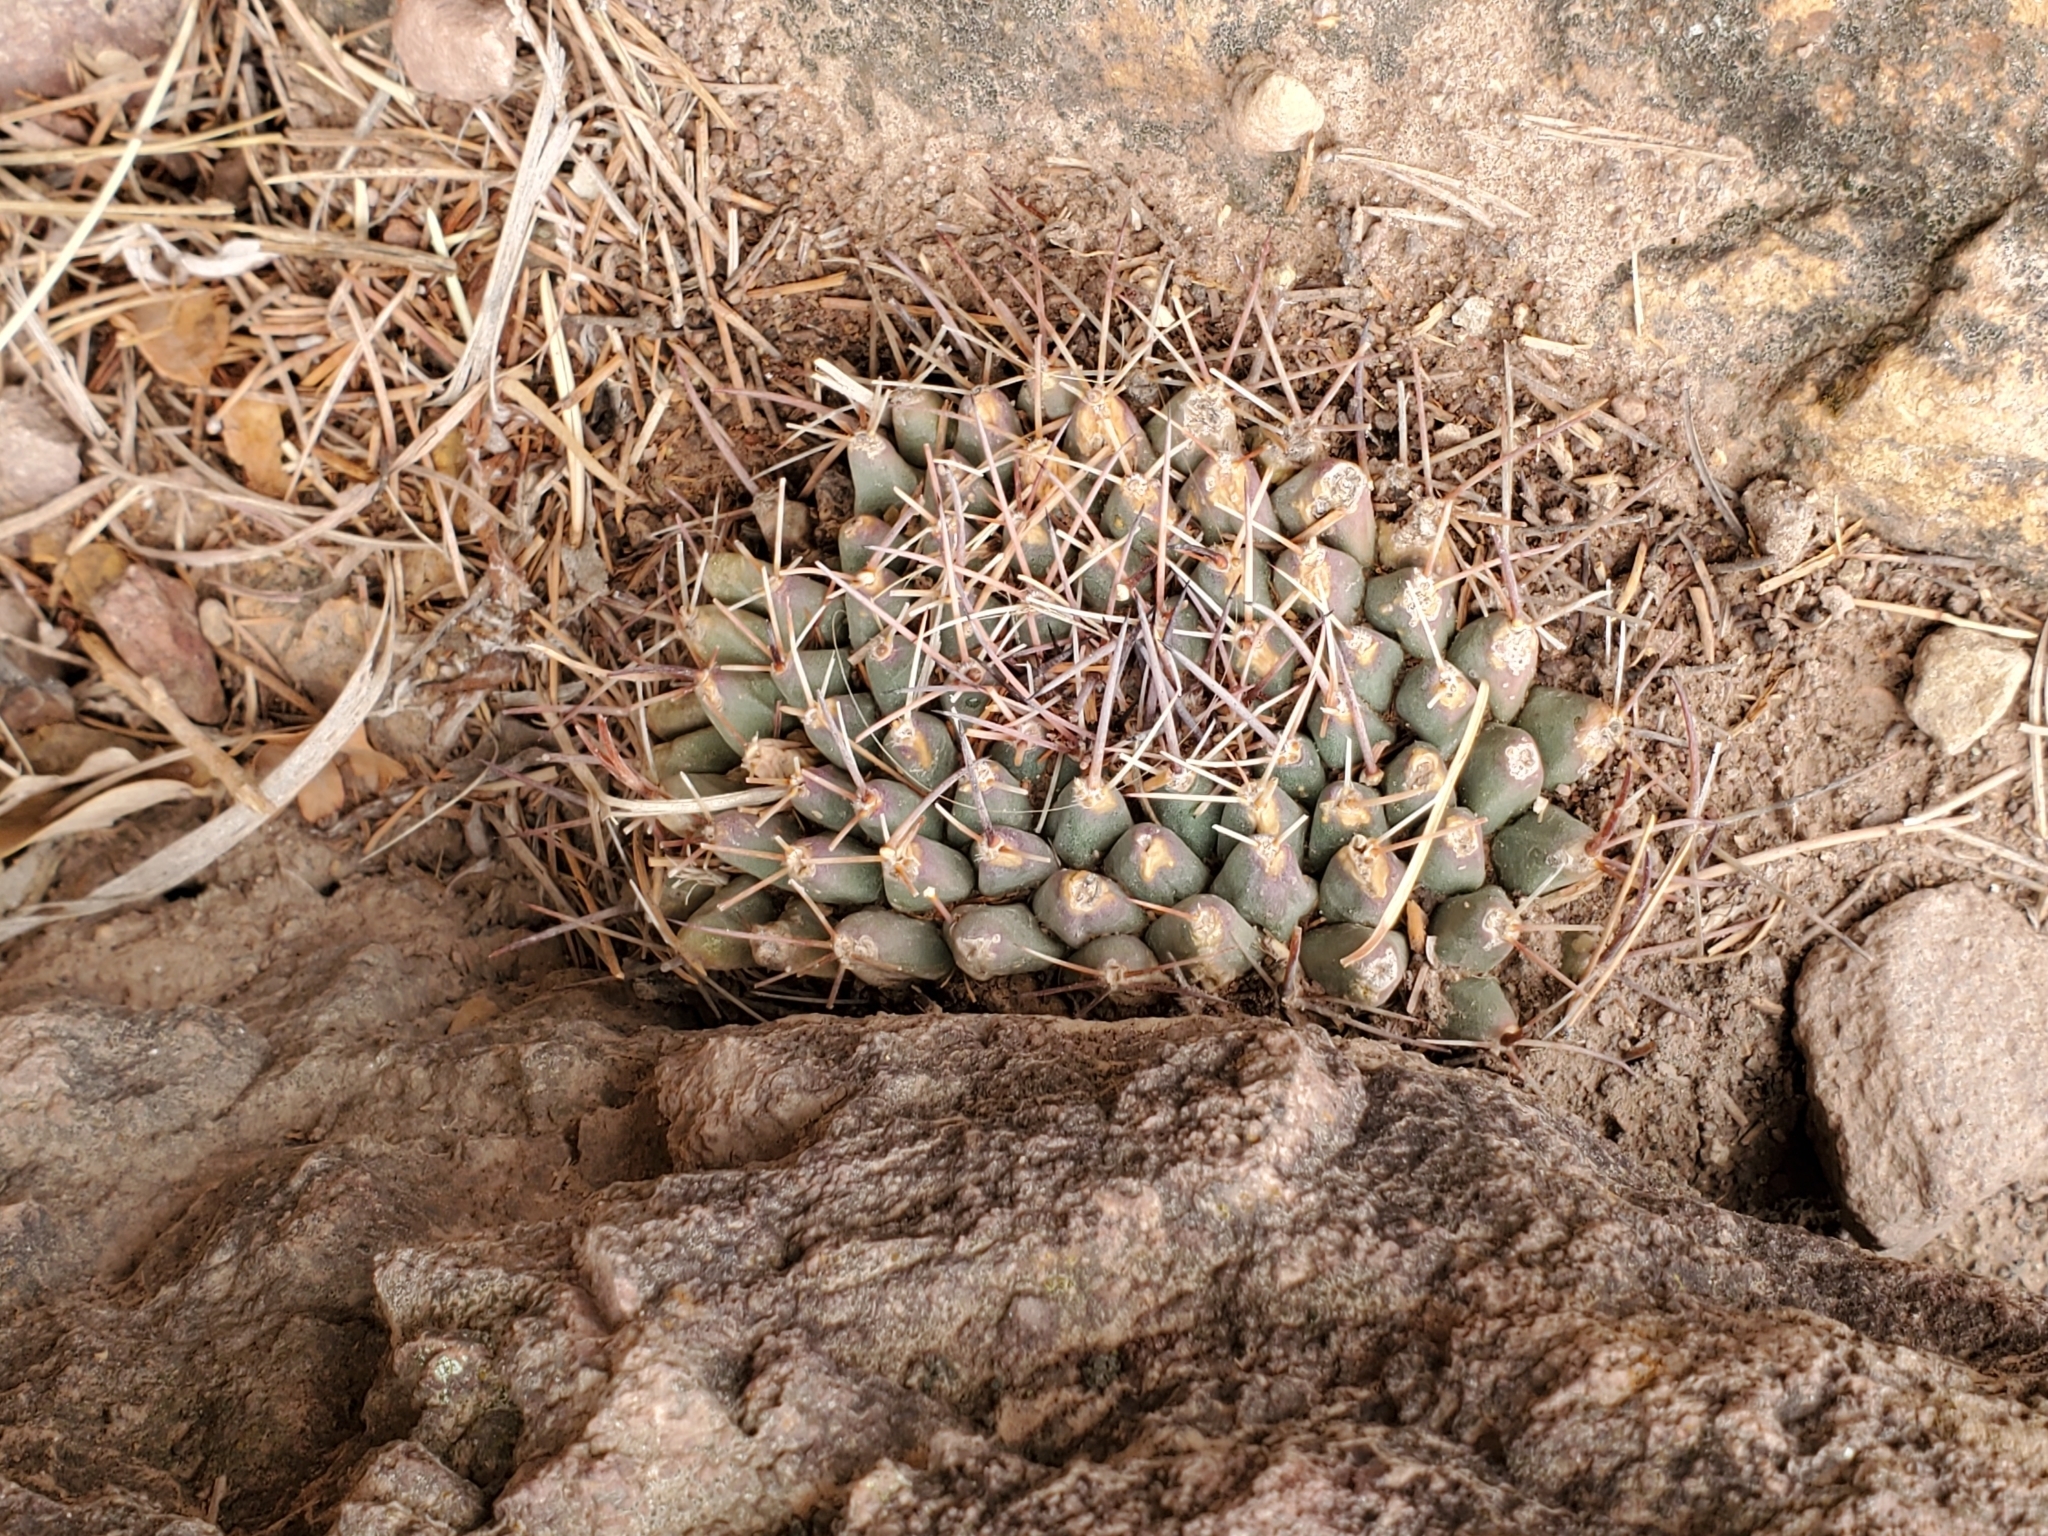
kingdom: Plantae
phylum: Tracheophyta
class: Magnoliopsida
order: Caryophyllales
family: Cactaceae
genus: Mammillaria
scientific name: Mammillaria heyderi
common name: Little nipple cactus
